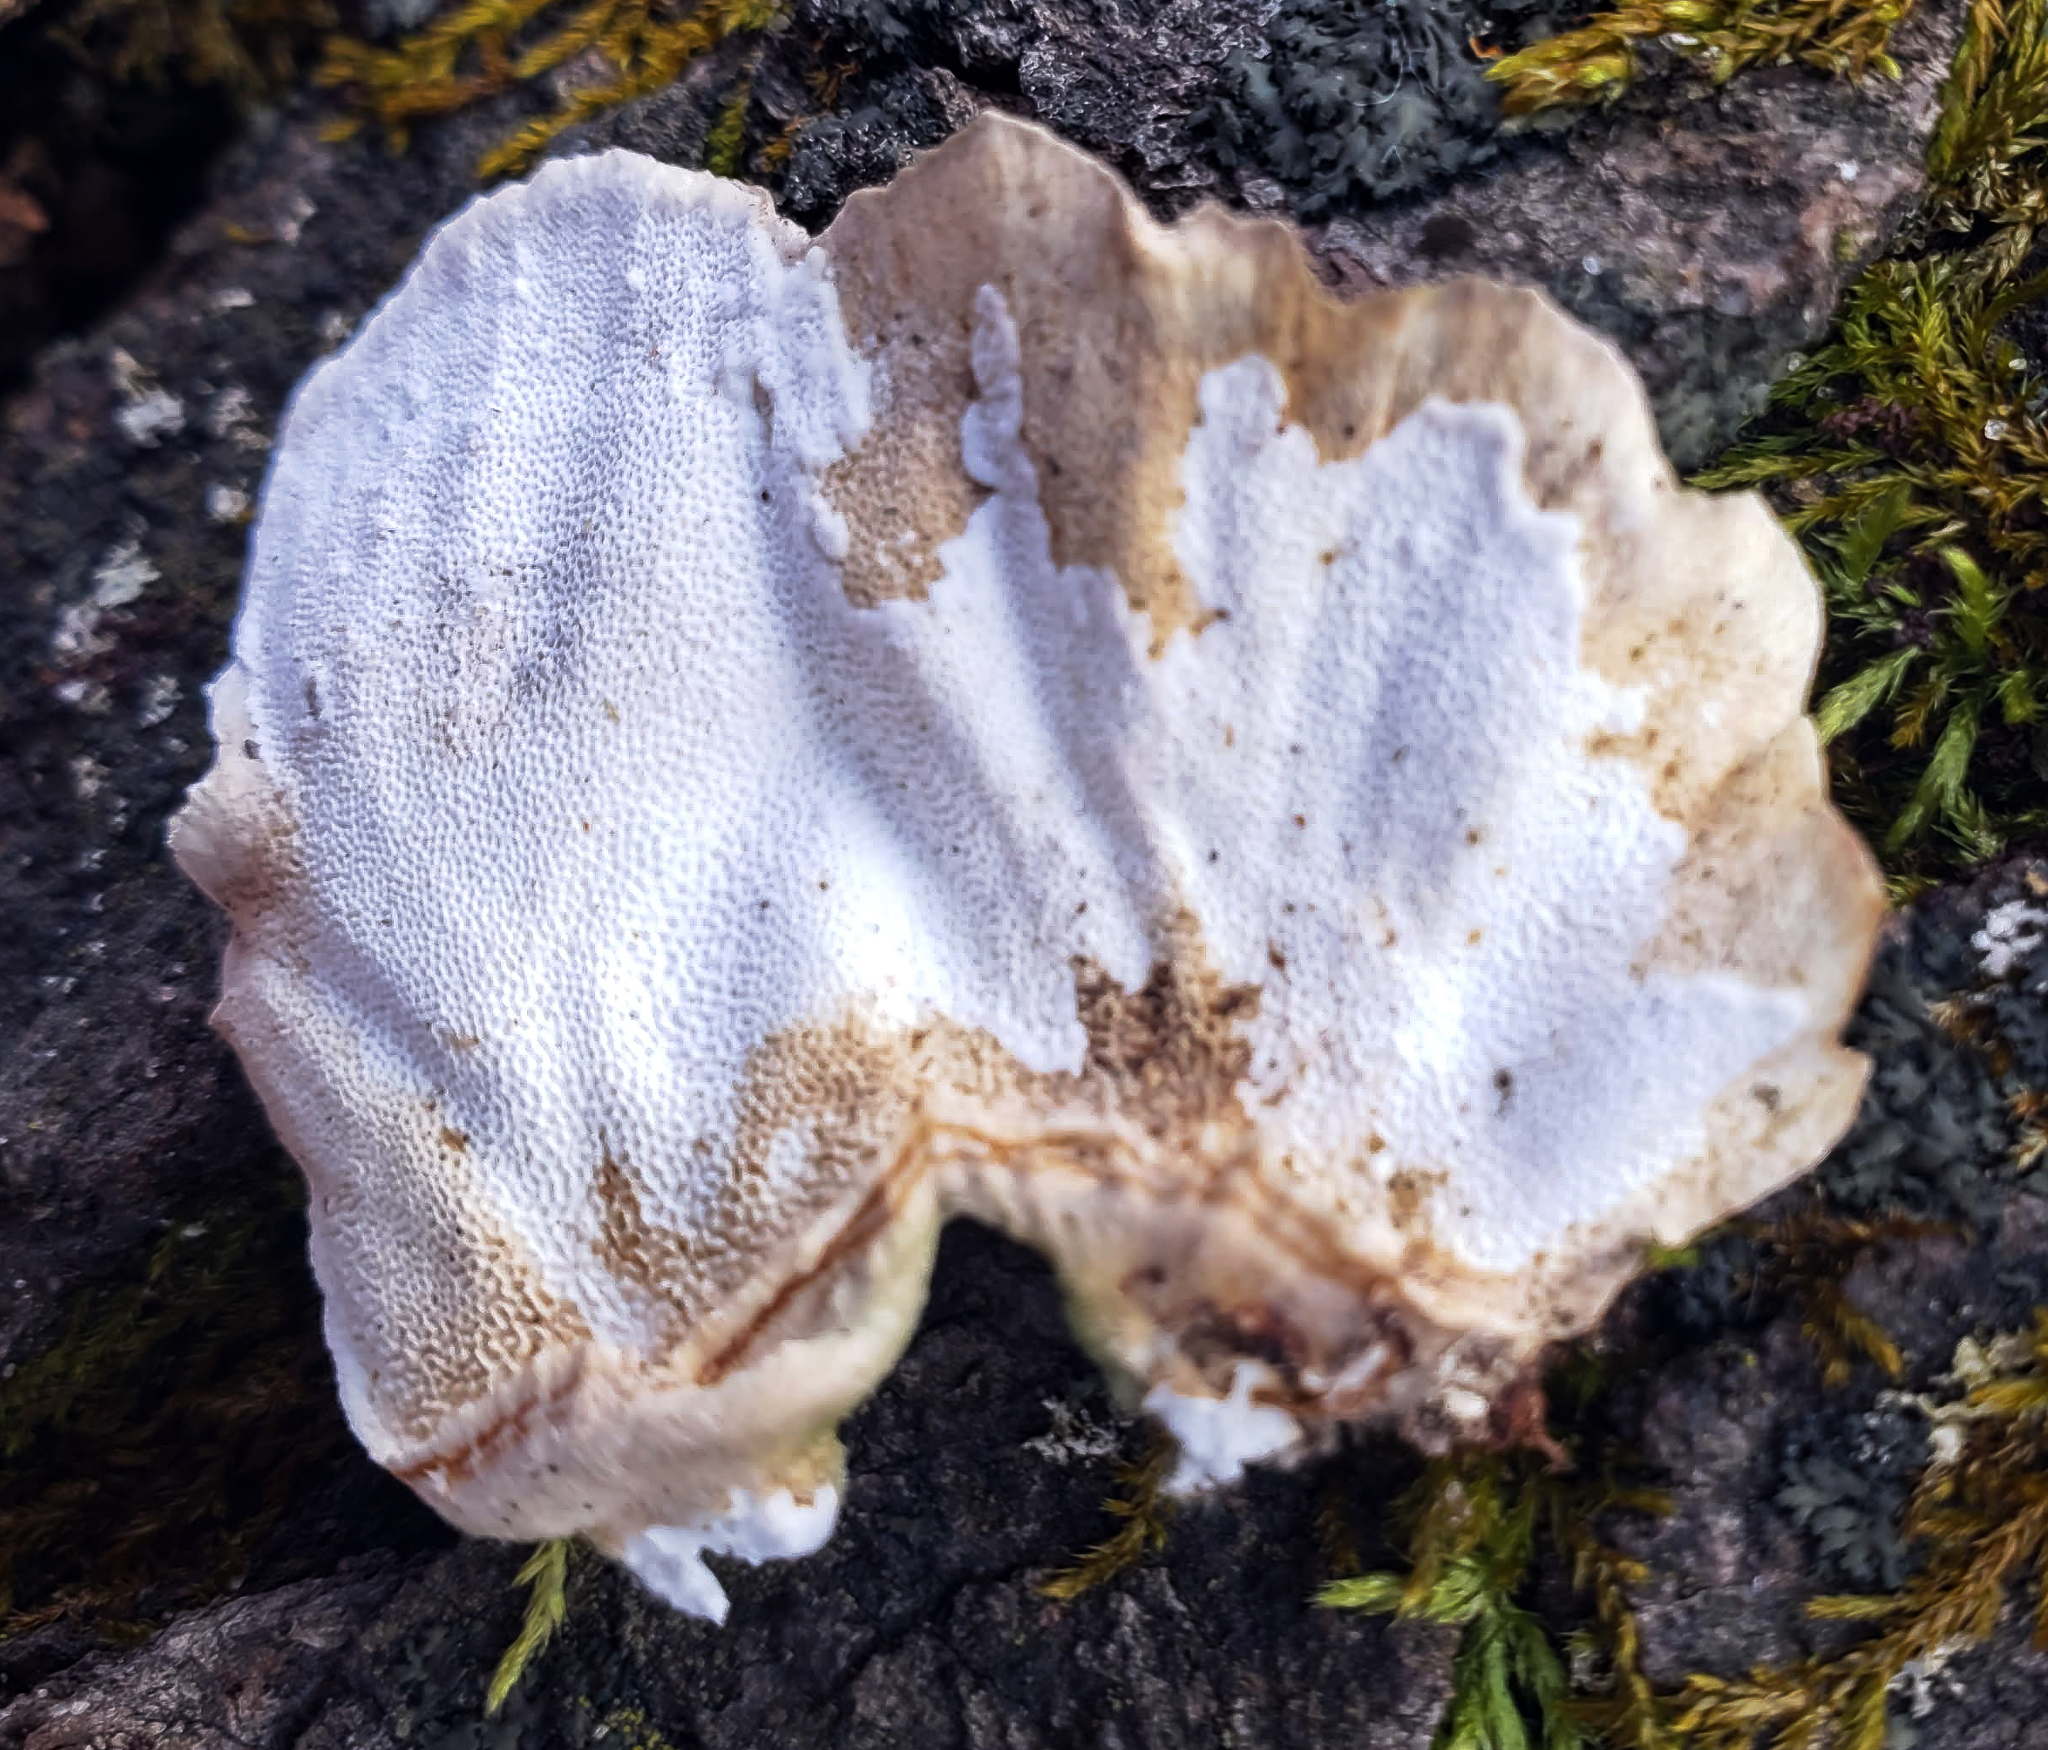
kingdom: Fungi
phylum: Basidiomycota
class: Agaricomycetes
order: Polyporales
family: Polyporaceae
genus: Trametes
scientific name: Trametes versicolor
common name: Turkeytail
